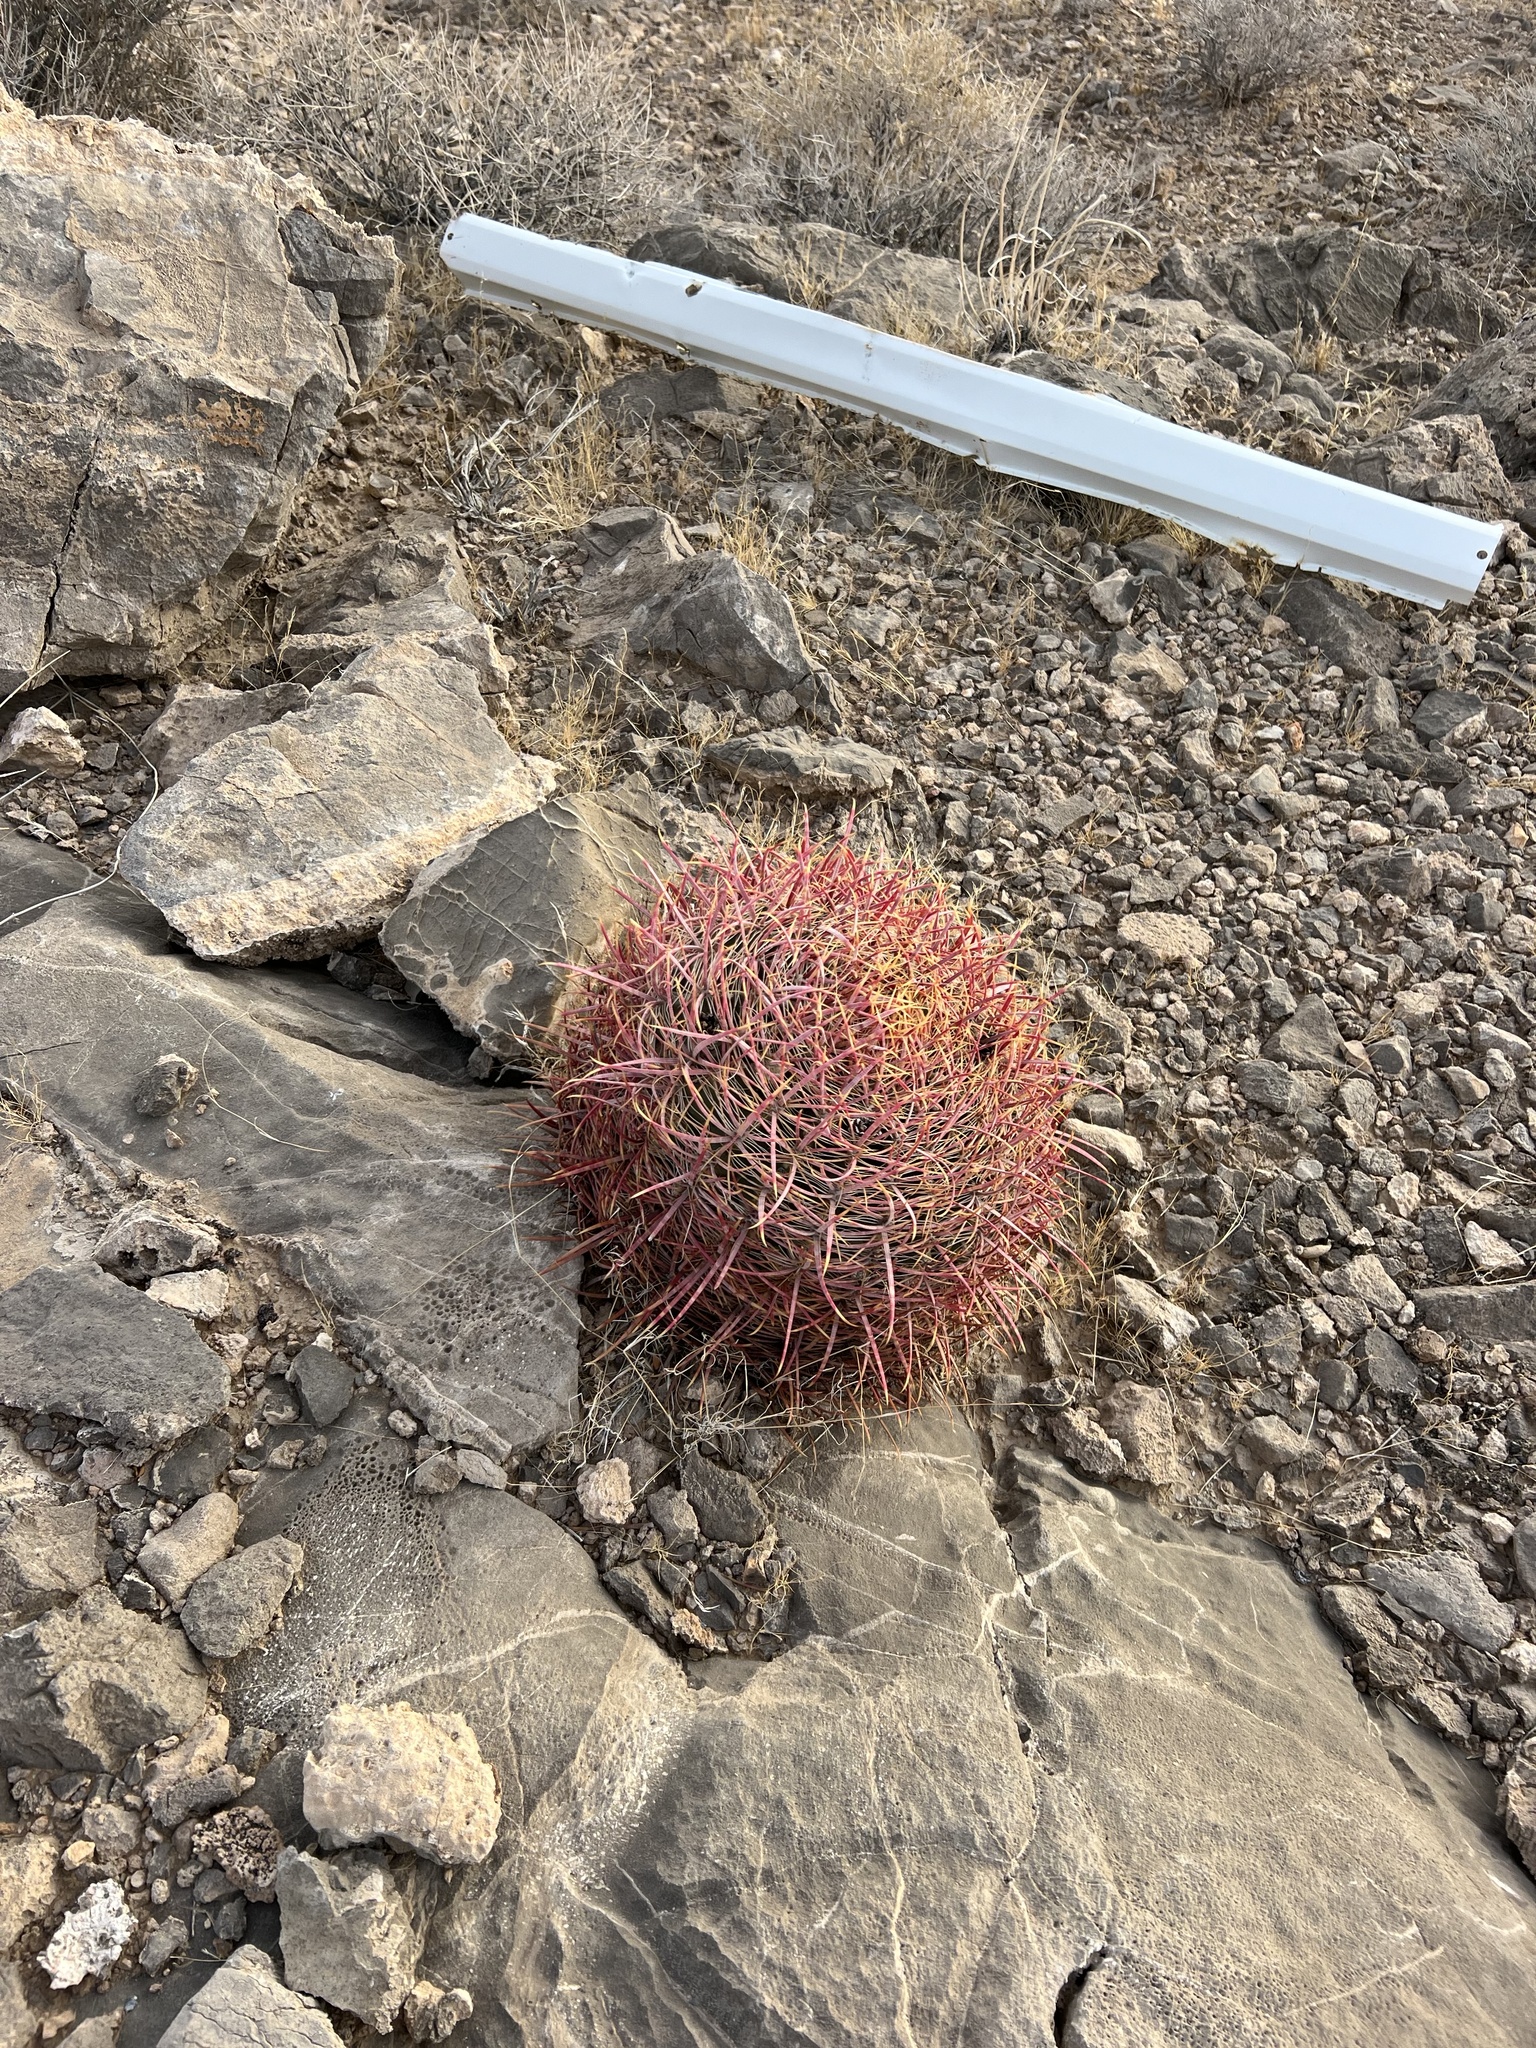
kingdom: Plantae
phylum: Tracheophyta
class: Magnoliopsida
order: Caryophyllales
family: Cactaceae
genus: Ferocactus
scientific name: Ferocactus cylindraceus
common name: California barrel cactus
